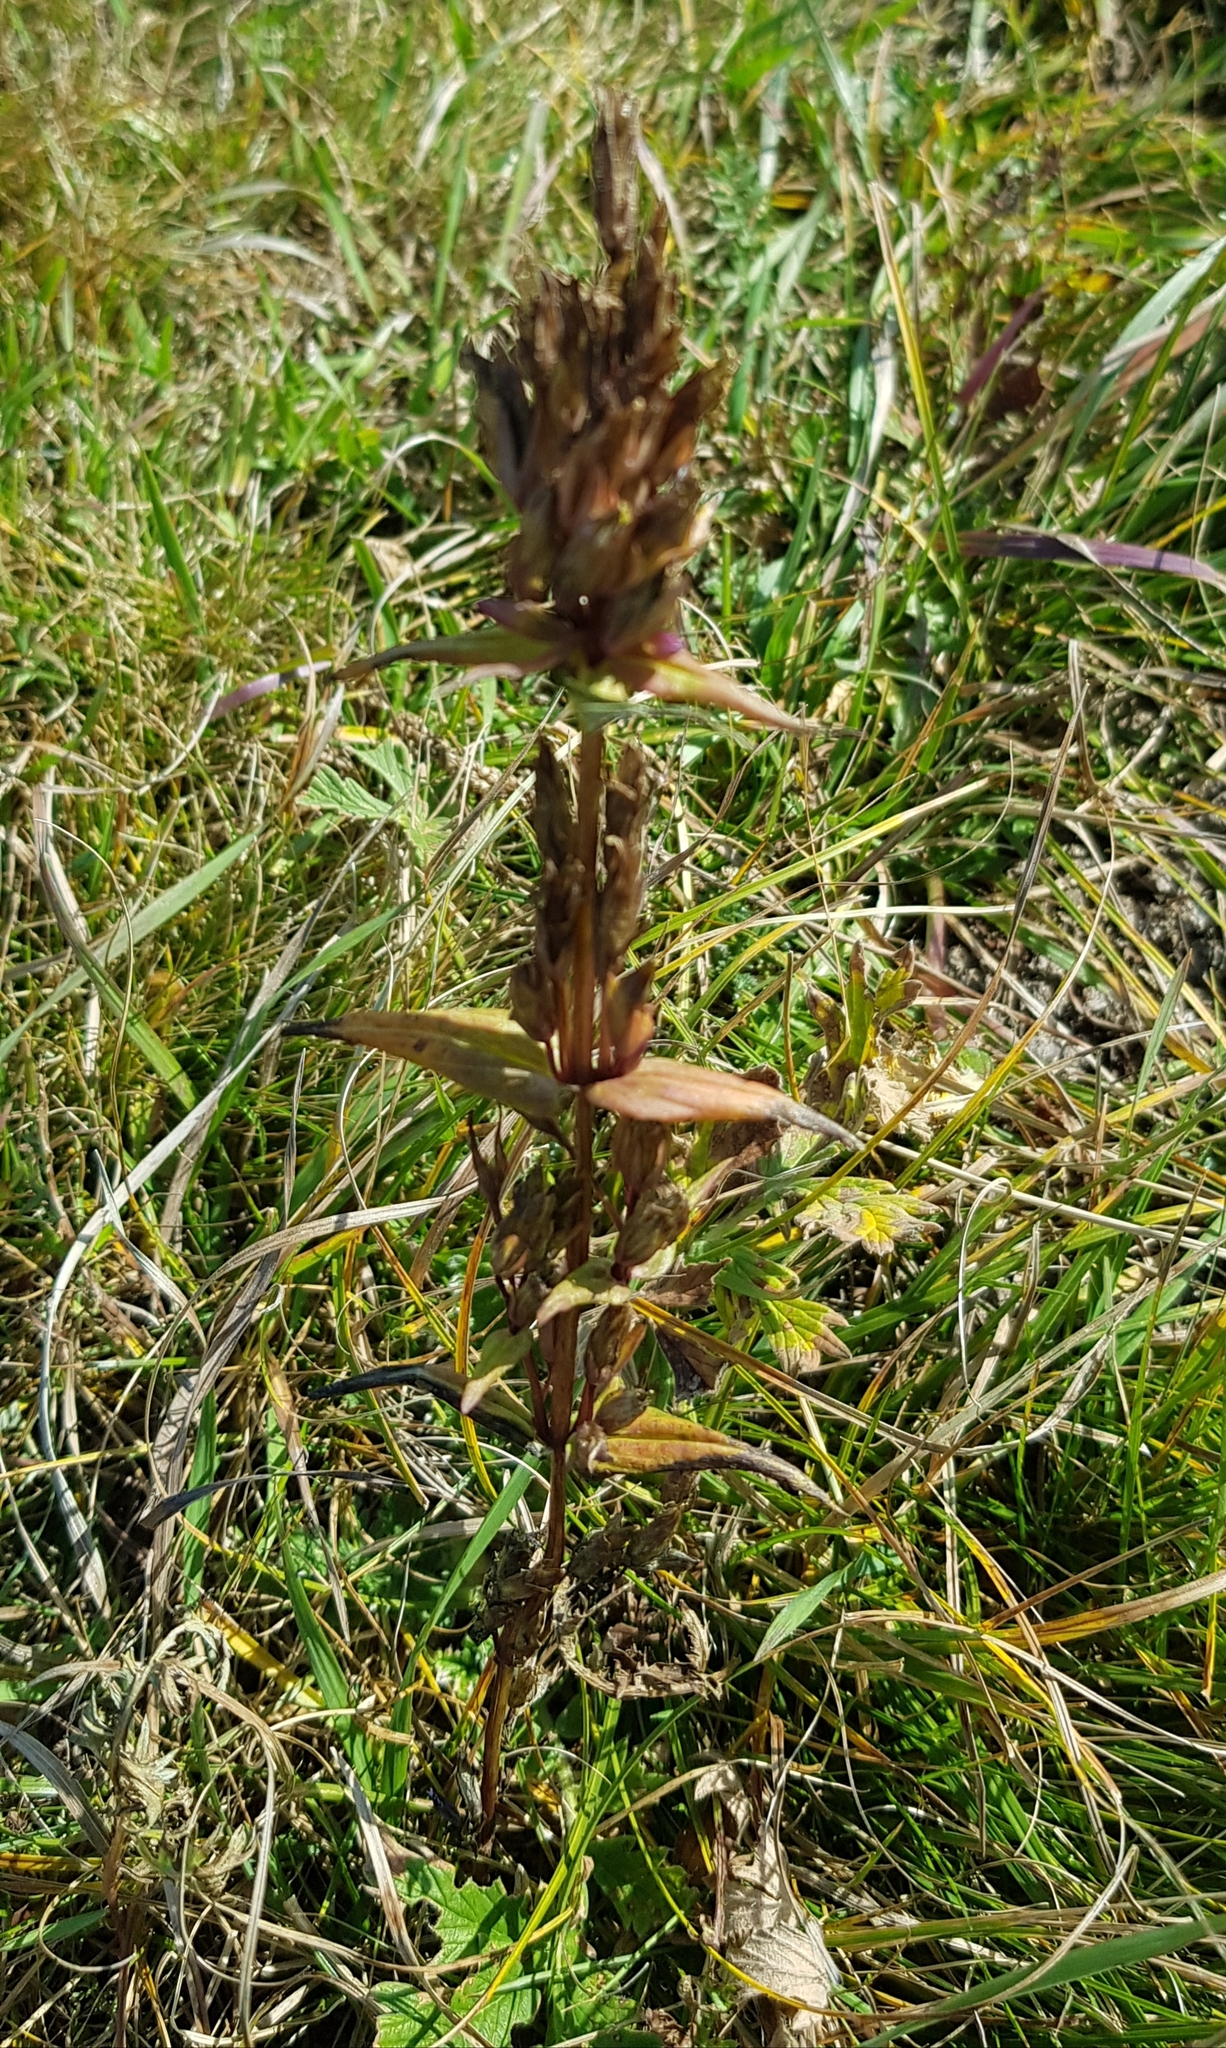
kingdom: Plantae
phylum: Tracheophyta
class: Magnoliopsida
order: Gentianales
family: Gentianaceae
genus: Gentiana
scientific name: Gentiana decumbens
